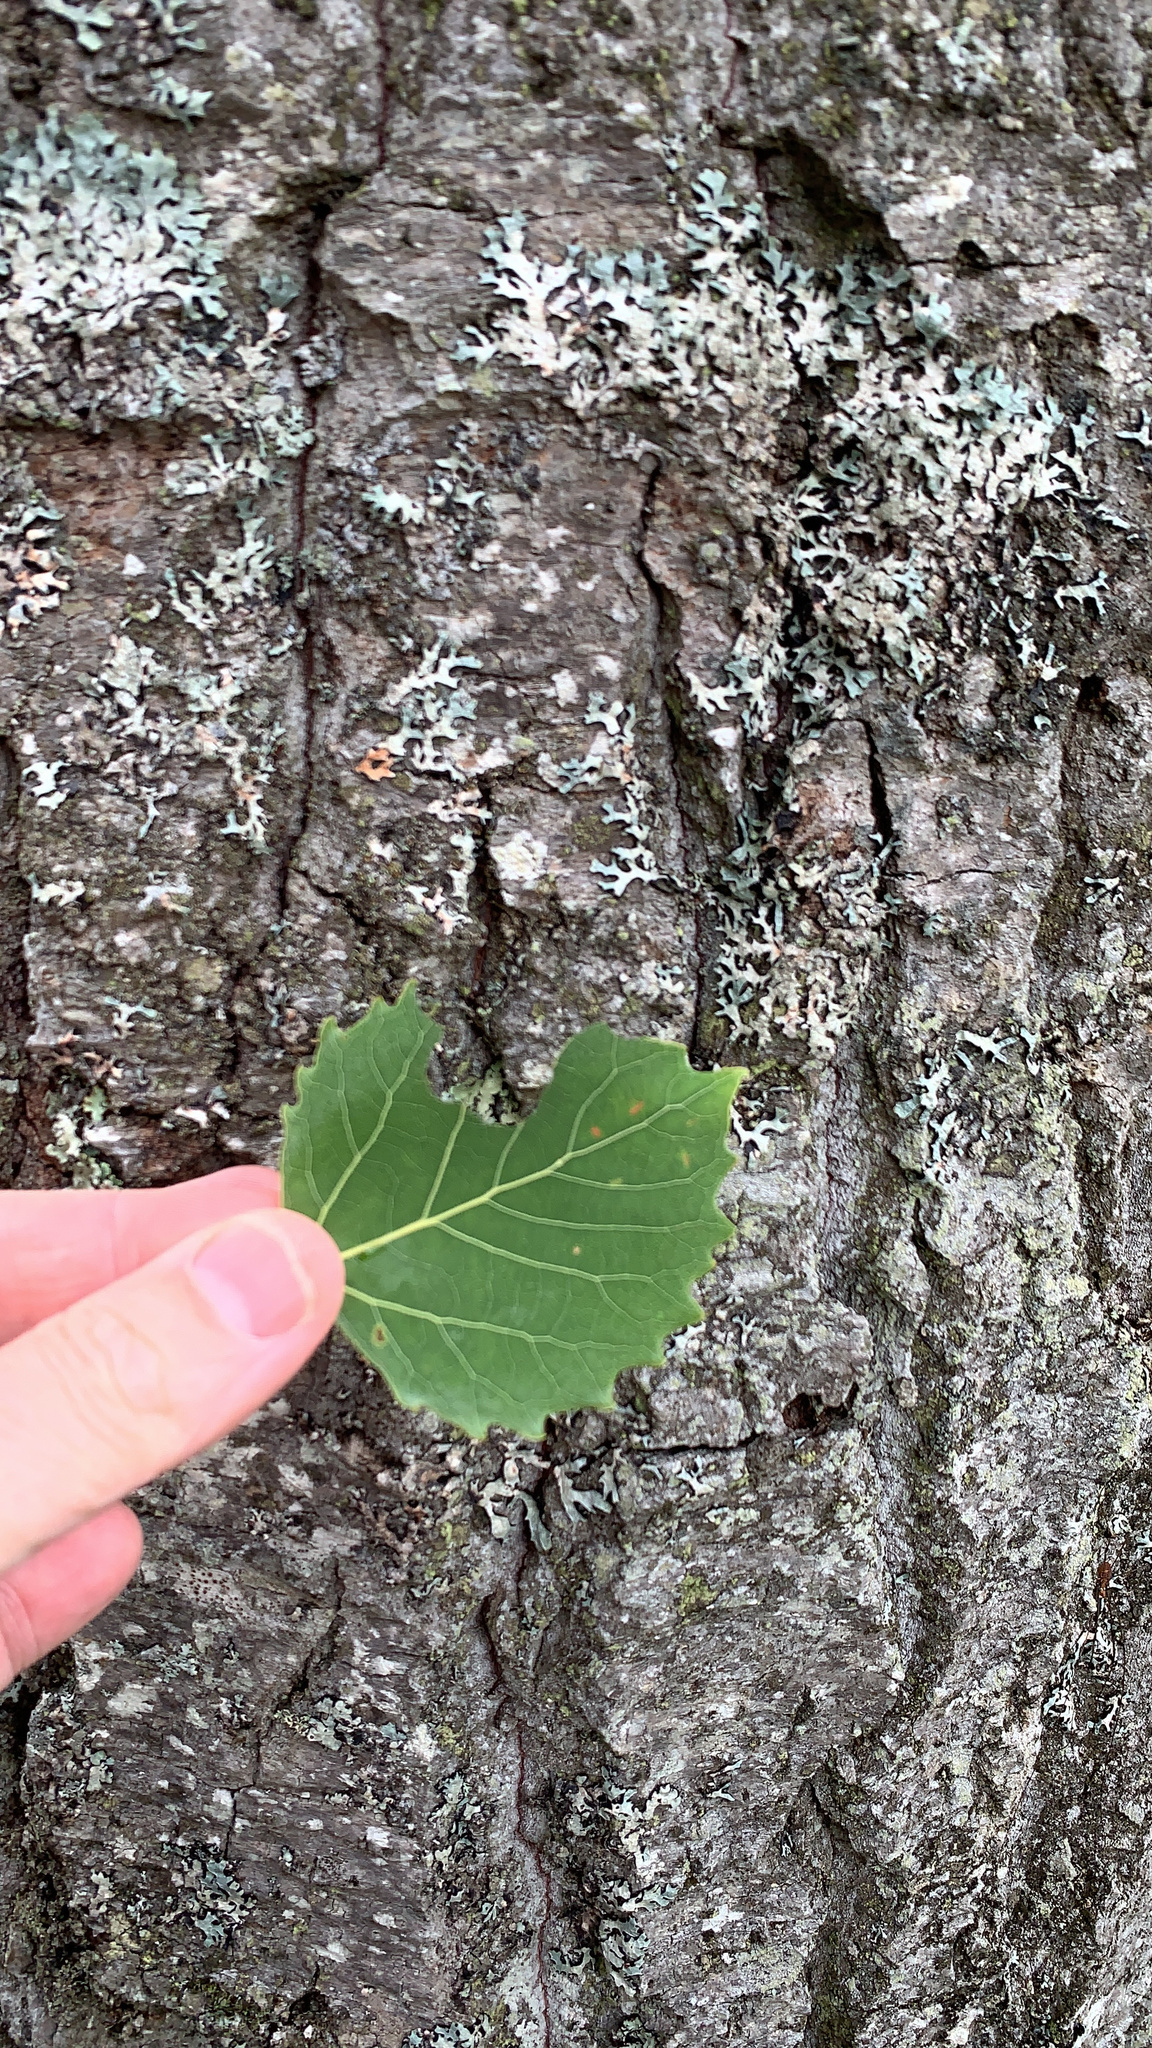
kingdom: Plantae
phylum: Tracheophyta
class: Magnoliopsida
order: Malpighiales
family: Salicaceae
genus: Populus
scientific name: Populus grandidentata
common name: Bigtooth aspen
